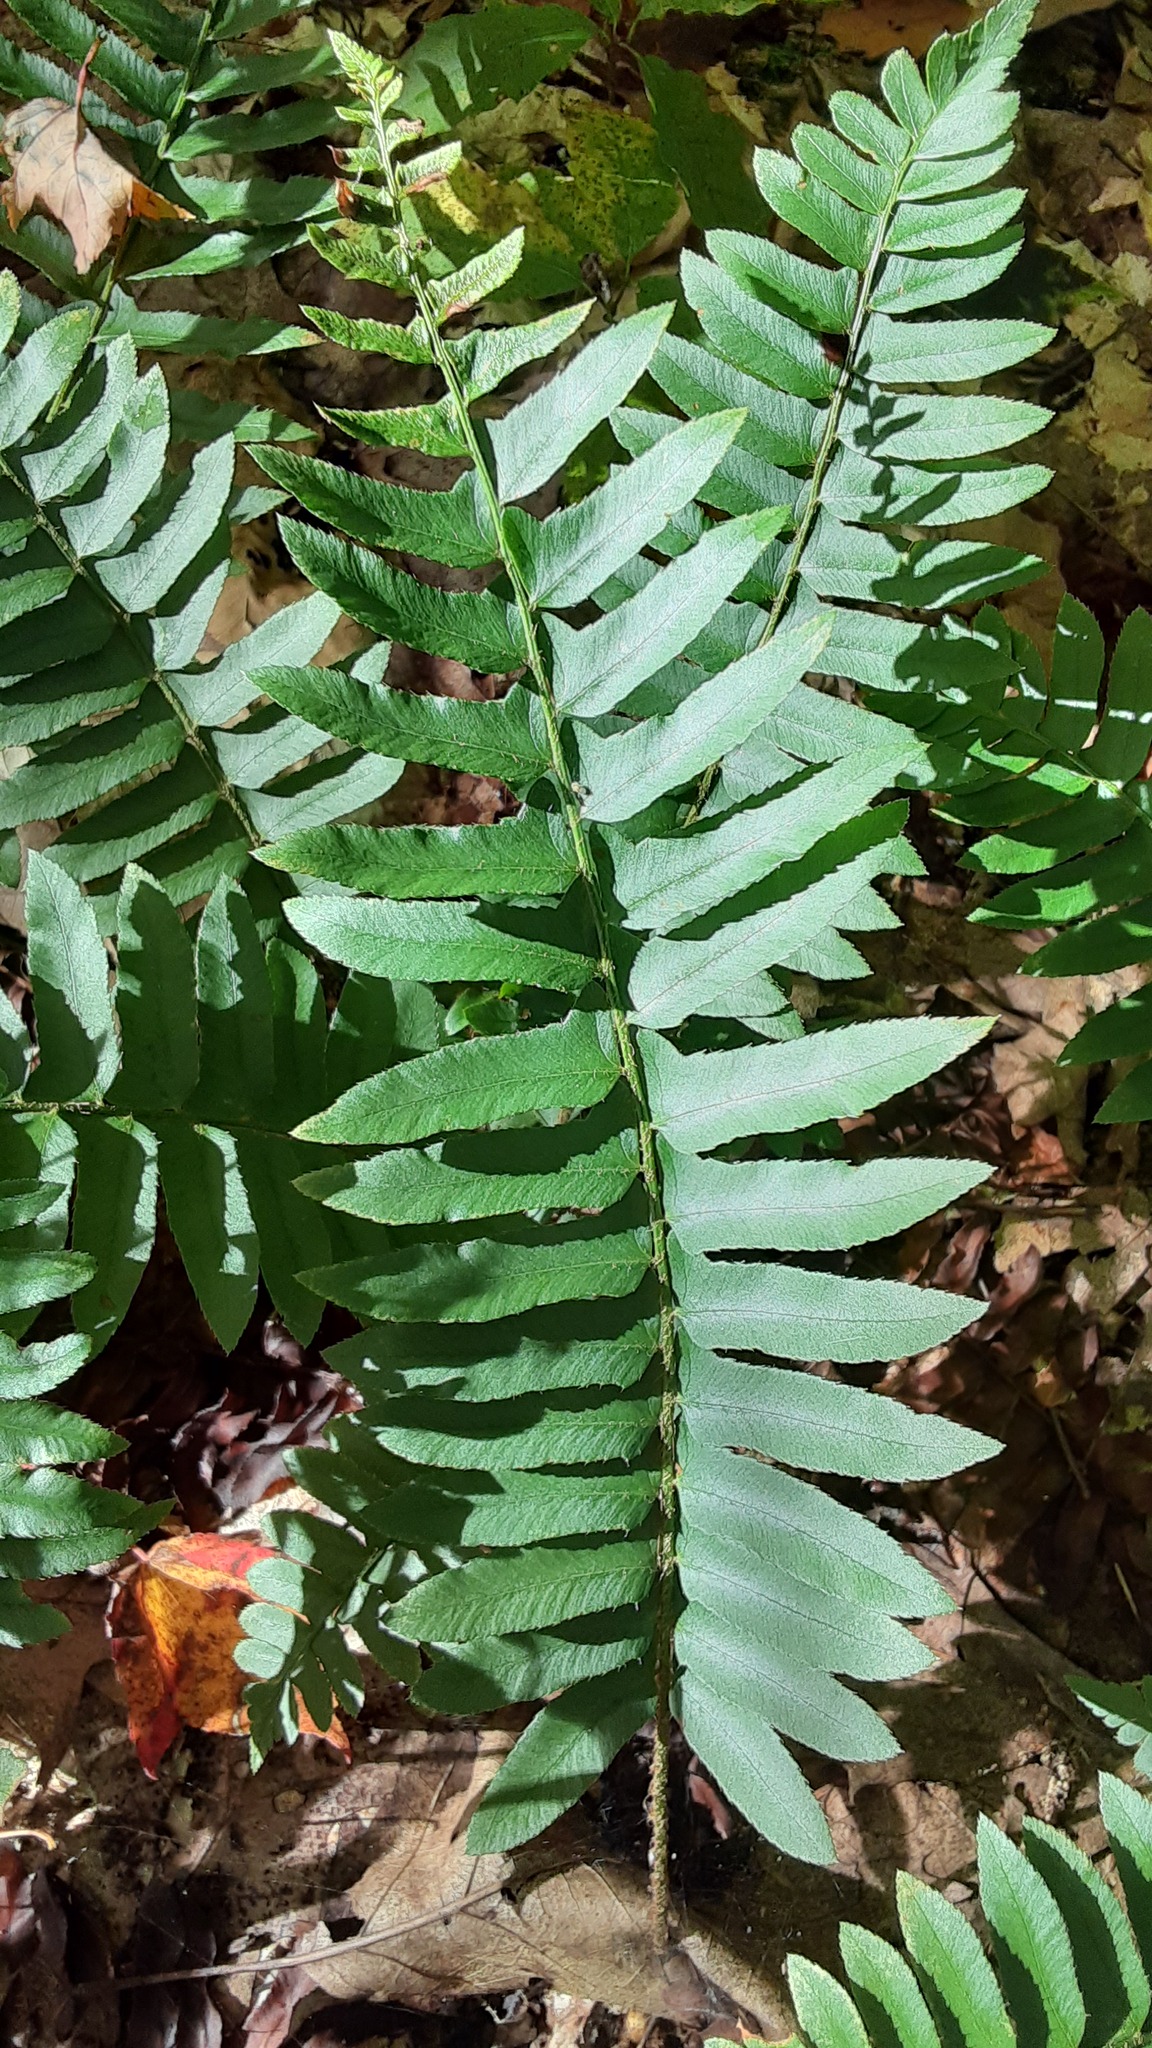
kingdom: Plantae
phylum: Tracheophyta
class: Polypodiopsida
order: Polypodiales
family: Dryopteridaceae
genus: Polystichum
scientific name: Polystichum acrostichoides
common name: Christmas fern
